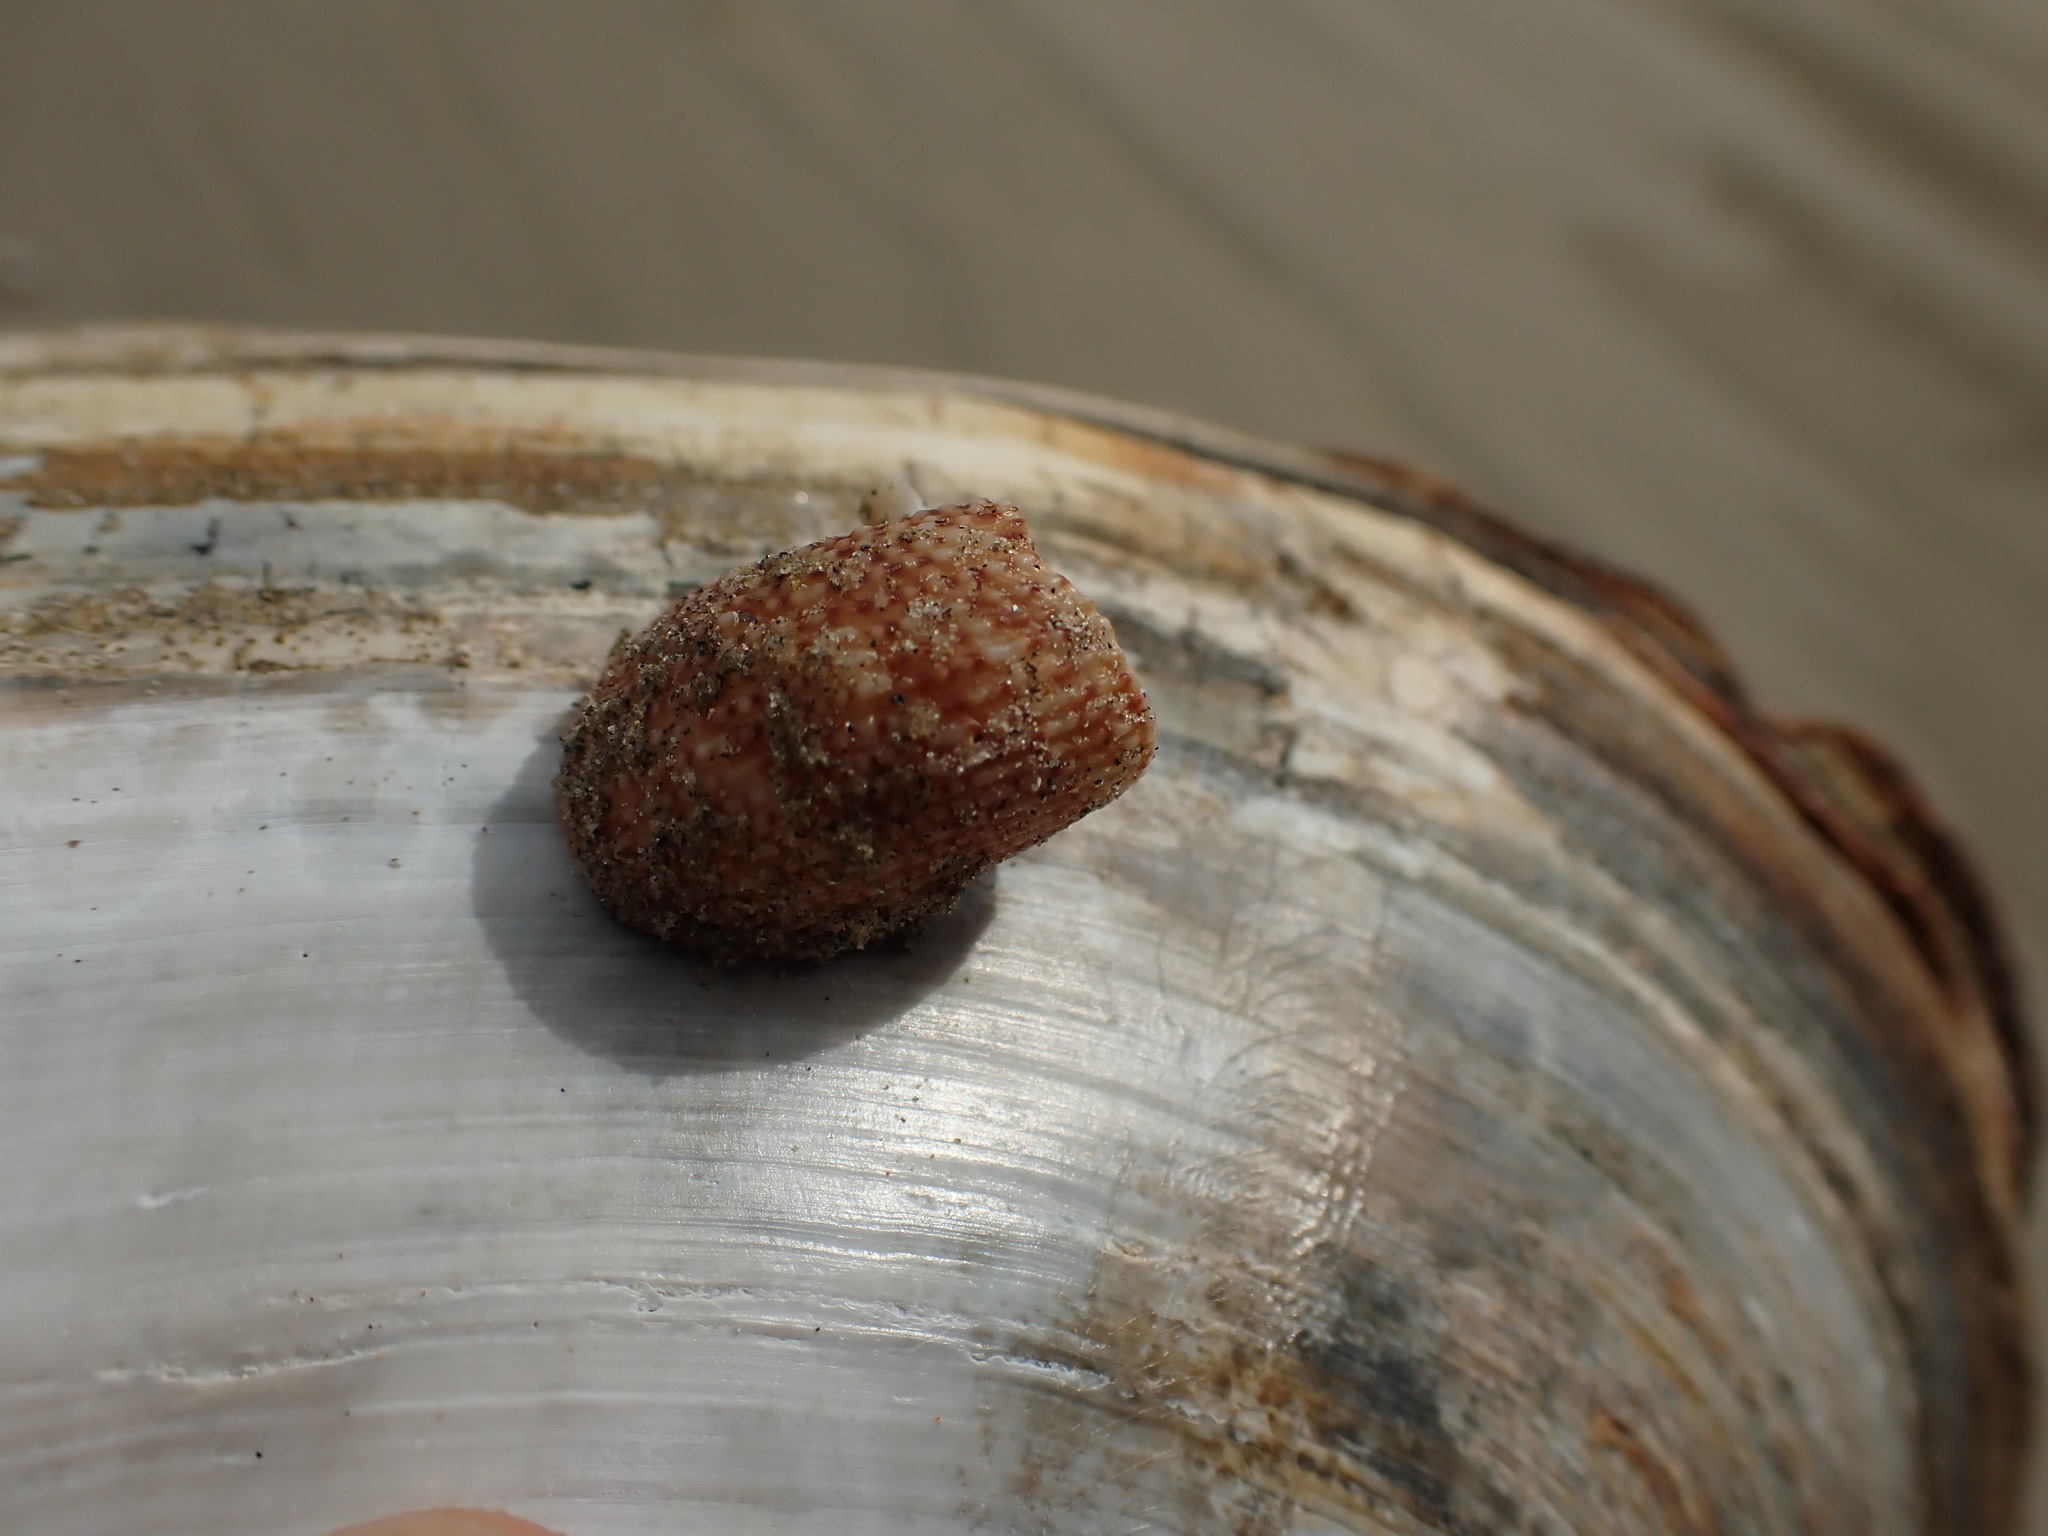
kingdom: Animalia
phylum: Mollusca
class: Gastropoda
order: Trochida
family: Calliostomatidae
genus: Maurea
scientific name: Maurea
